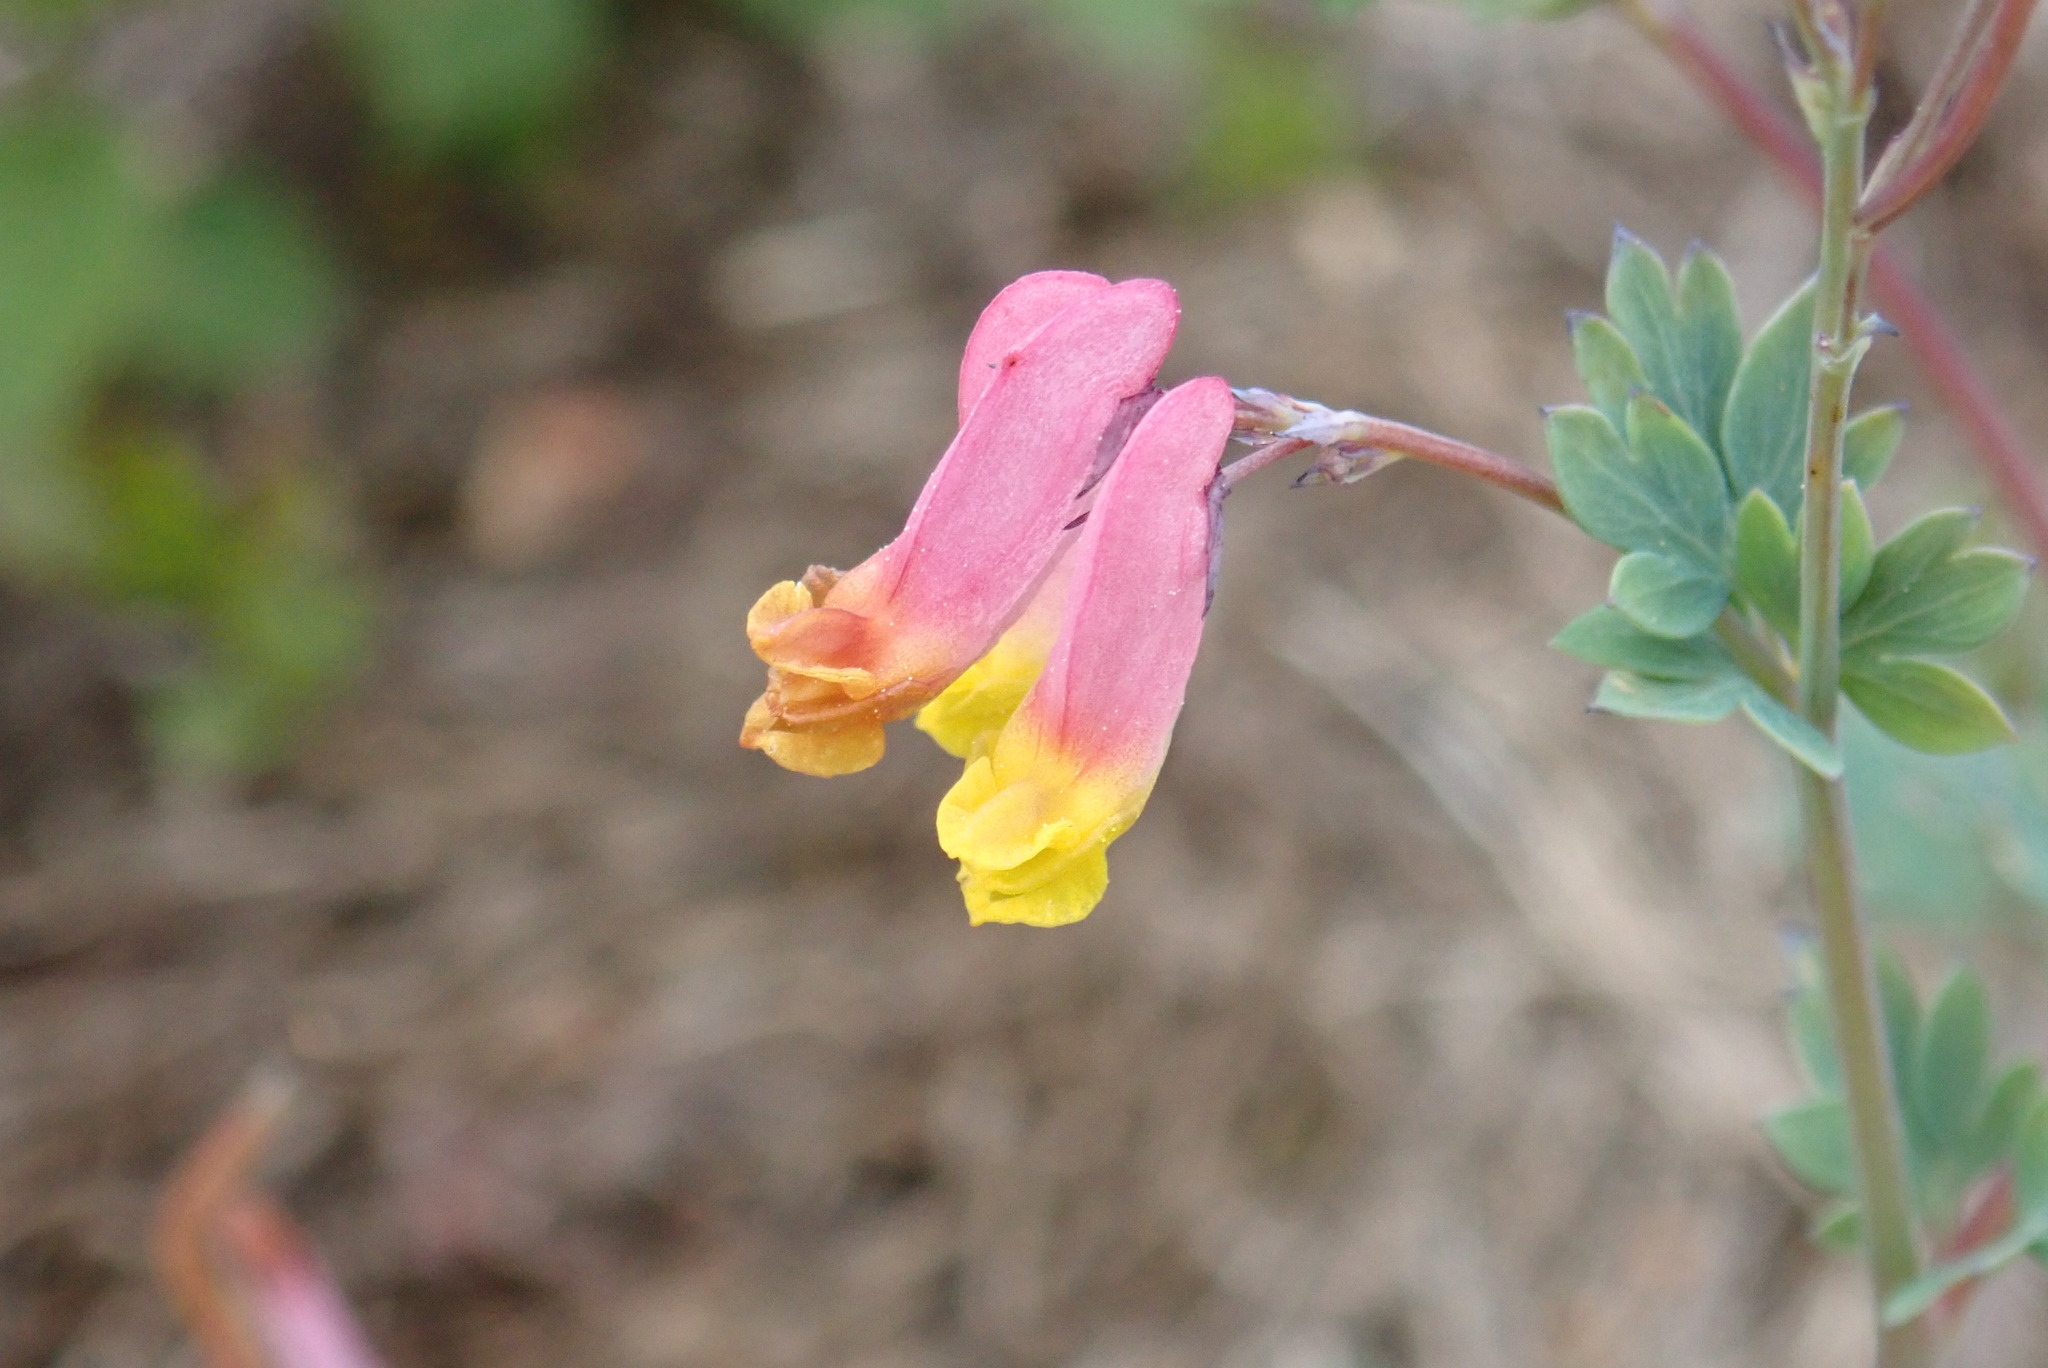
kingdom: Plantae
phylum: Tracheophyta
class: Magnoliopsida
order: Ranunculales
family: Papaveraceae
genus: Capnoides
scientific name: Capnoides sempervirens
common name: Rock harlequin
